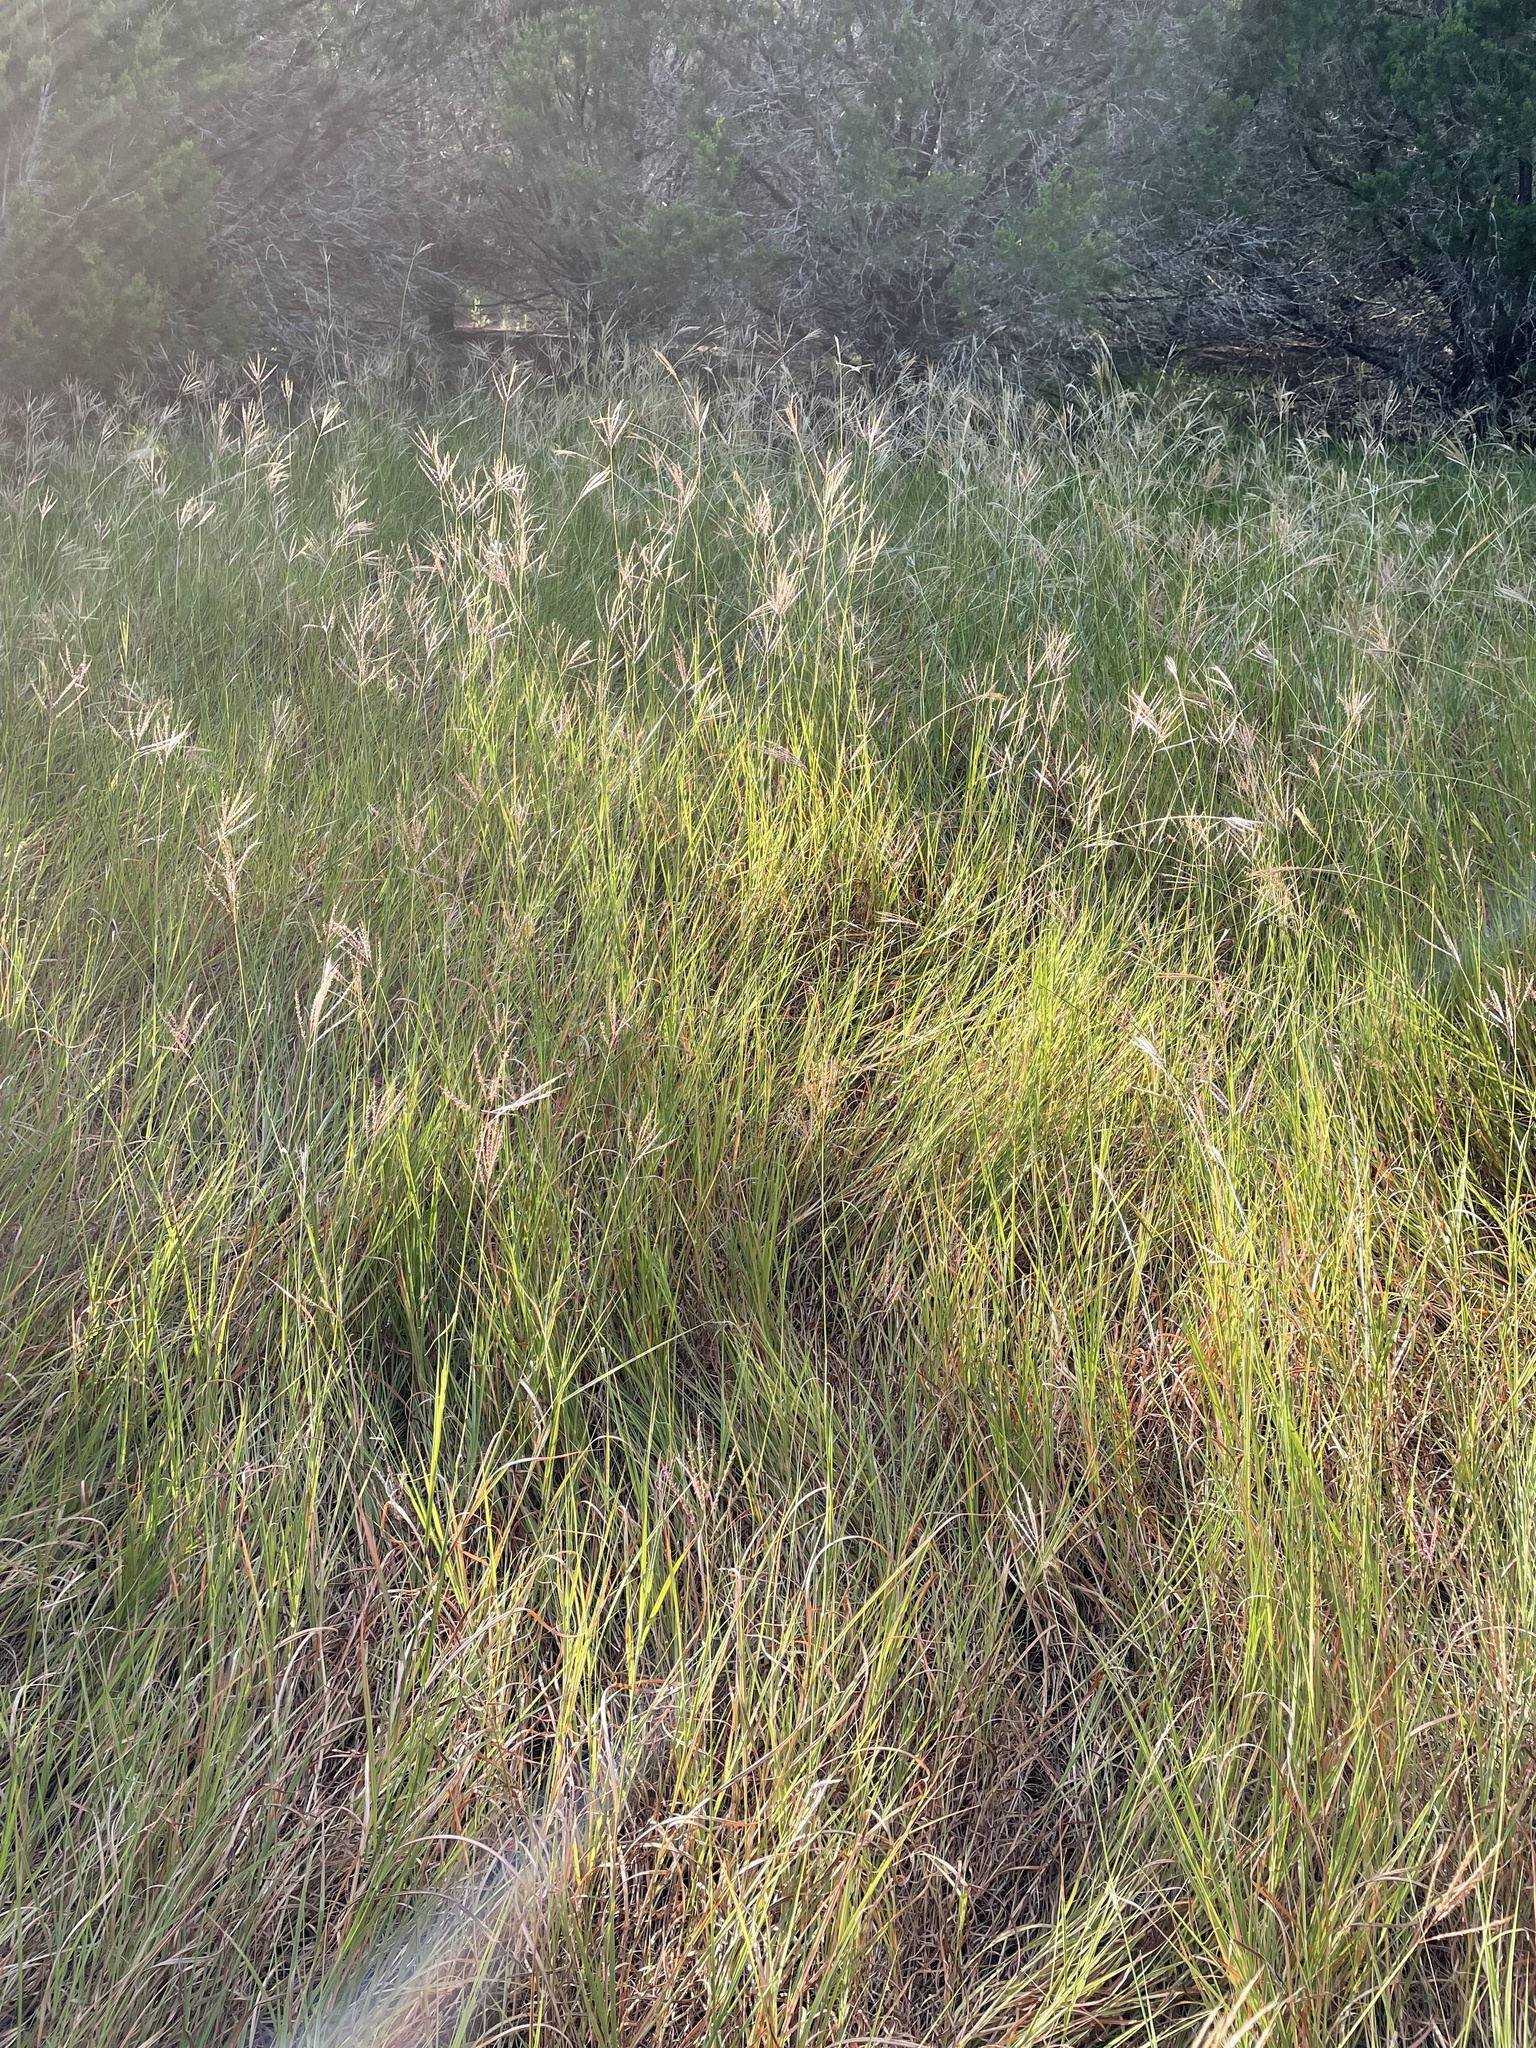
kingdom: Plantae
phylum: Tracheophyta
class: Liliopsida
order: Poales
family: Poaceae
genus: Bothriochloa
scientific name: Bothriochloa ischaemum
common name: Yellow bluestem
